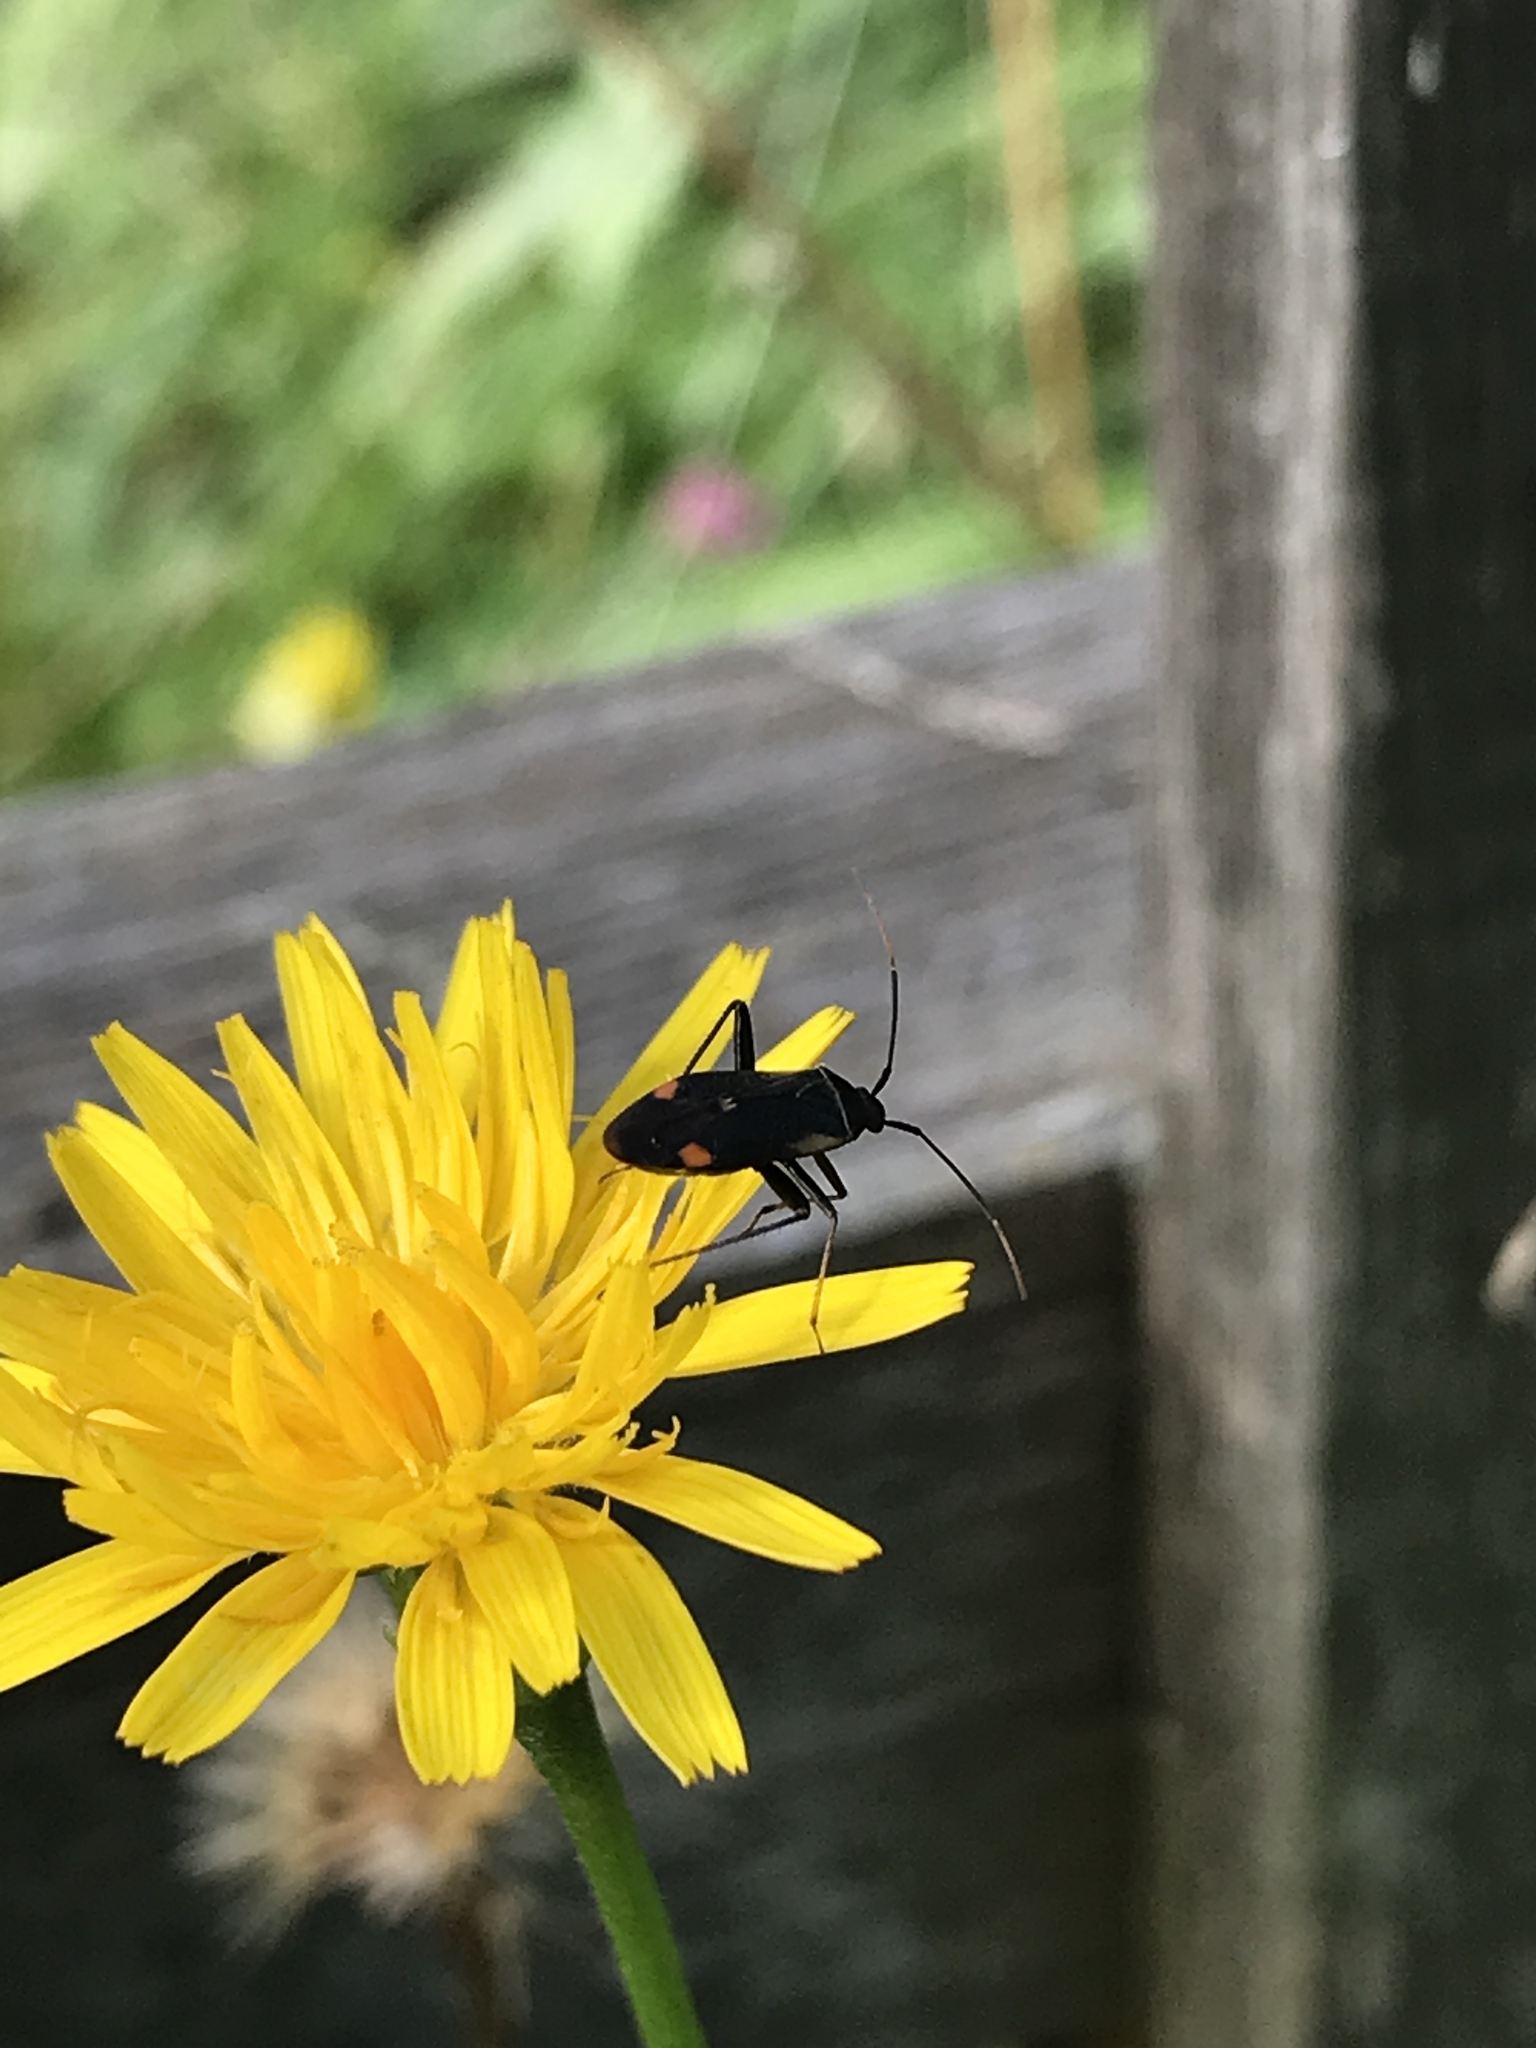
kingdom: Animalia
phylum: Arthropoda
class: Insecta
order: Hemiptera
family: Miridae
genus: Adelphocoris
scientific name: Adelphocoris seticornis
